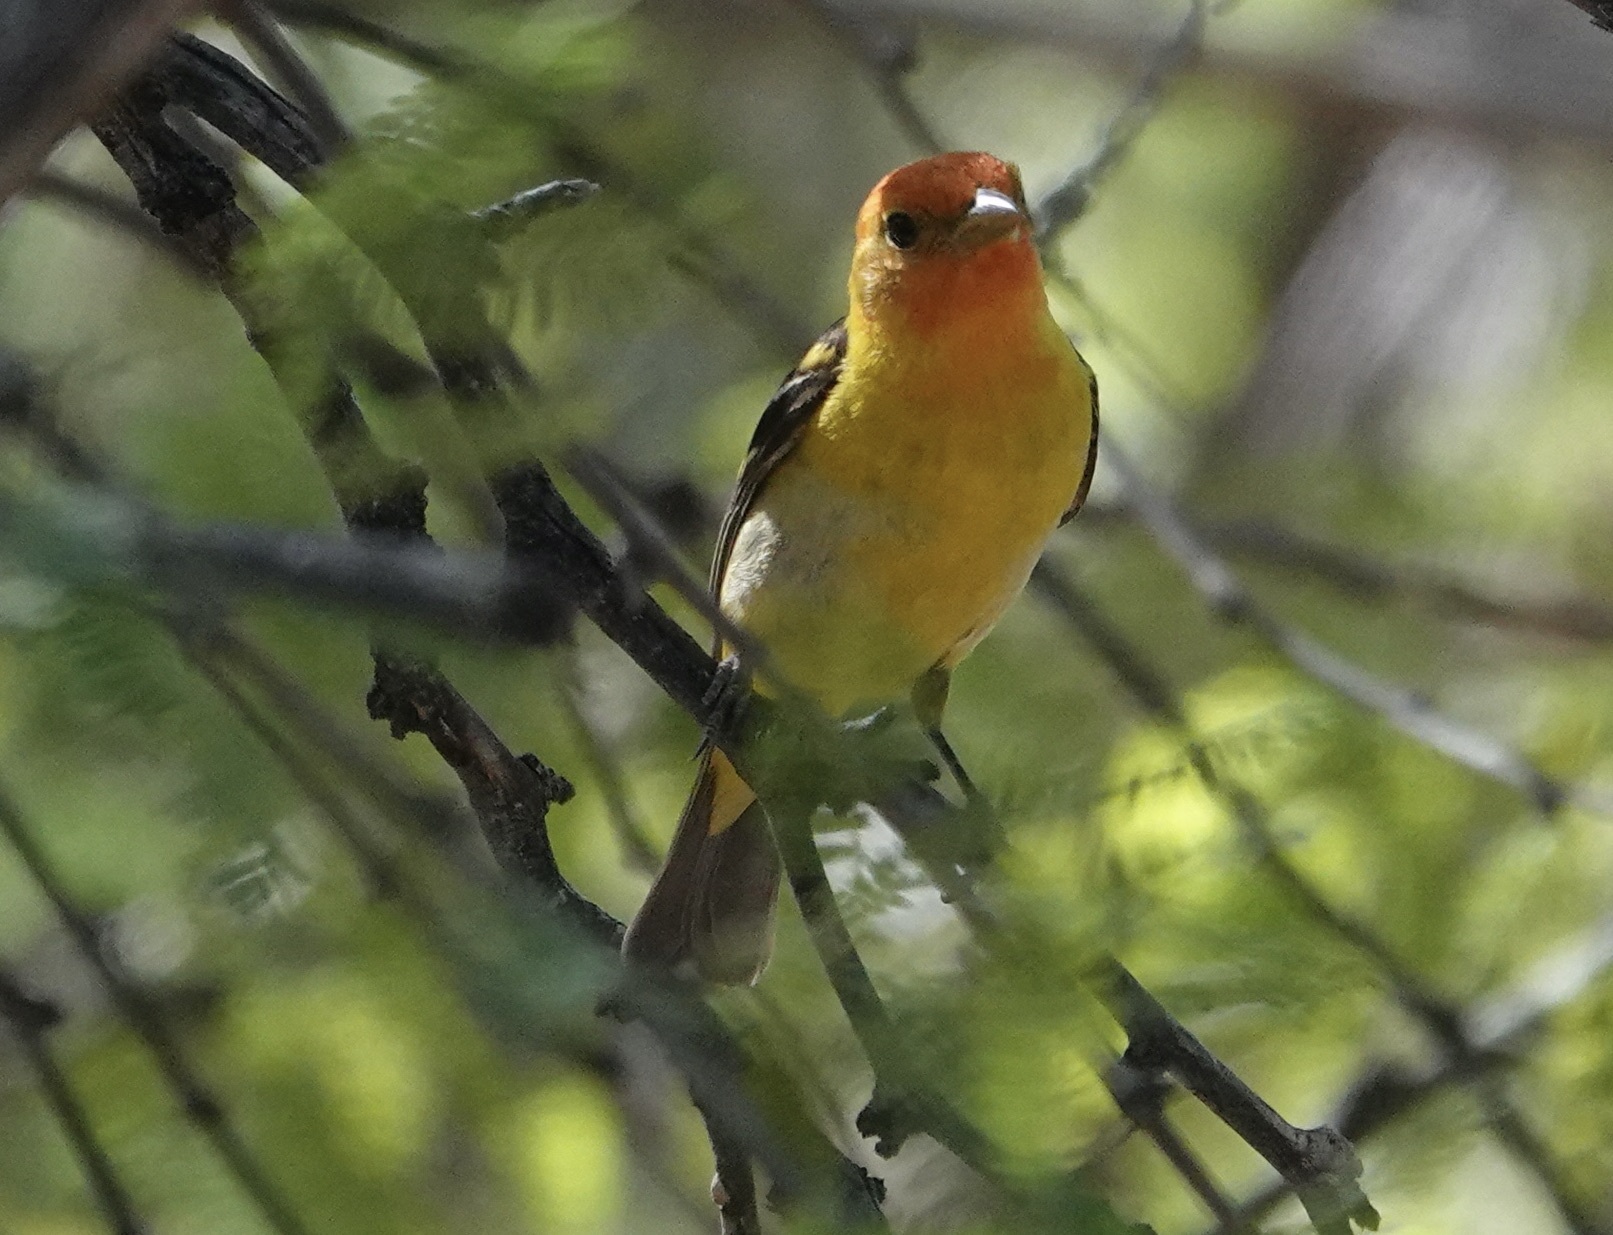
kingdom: Animalia
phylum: Chordata
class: Aves
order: Passeriformes
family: Cardinalidae
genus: Piranga
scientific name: Piranga ludoviciana
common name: Western tanager
